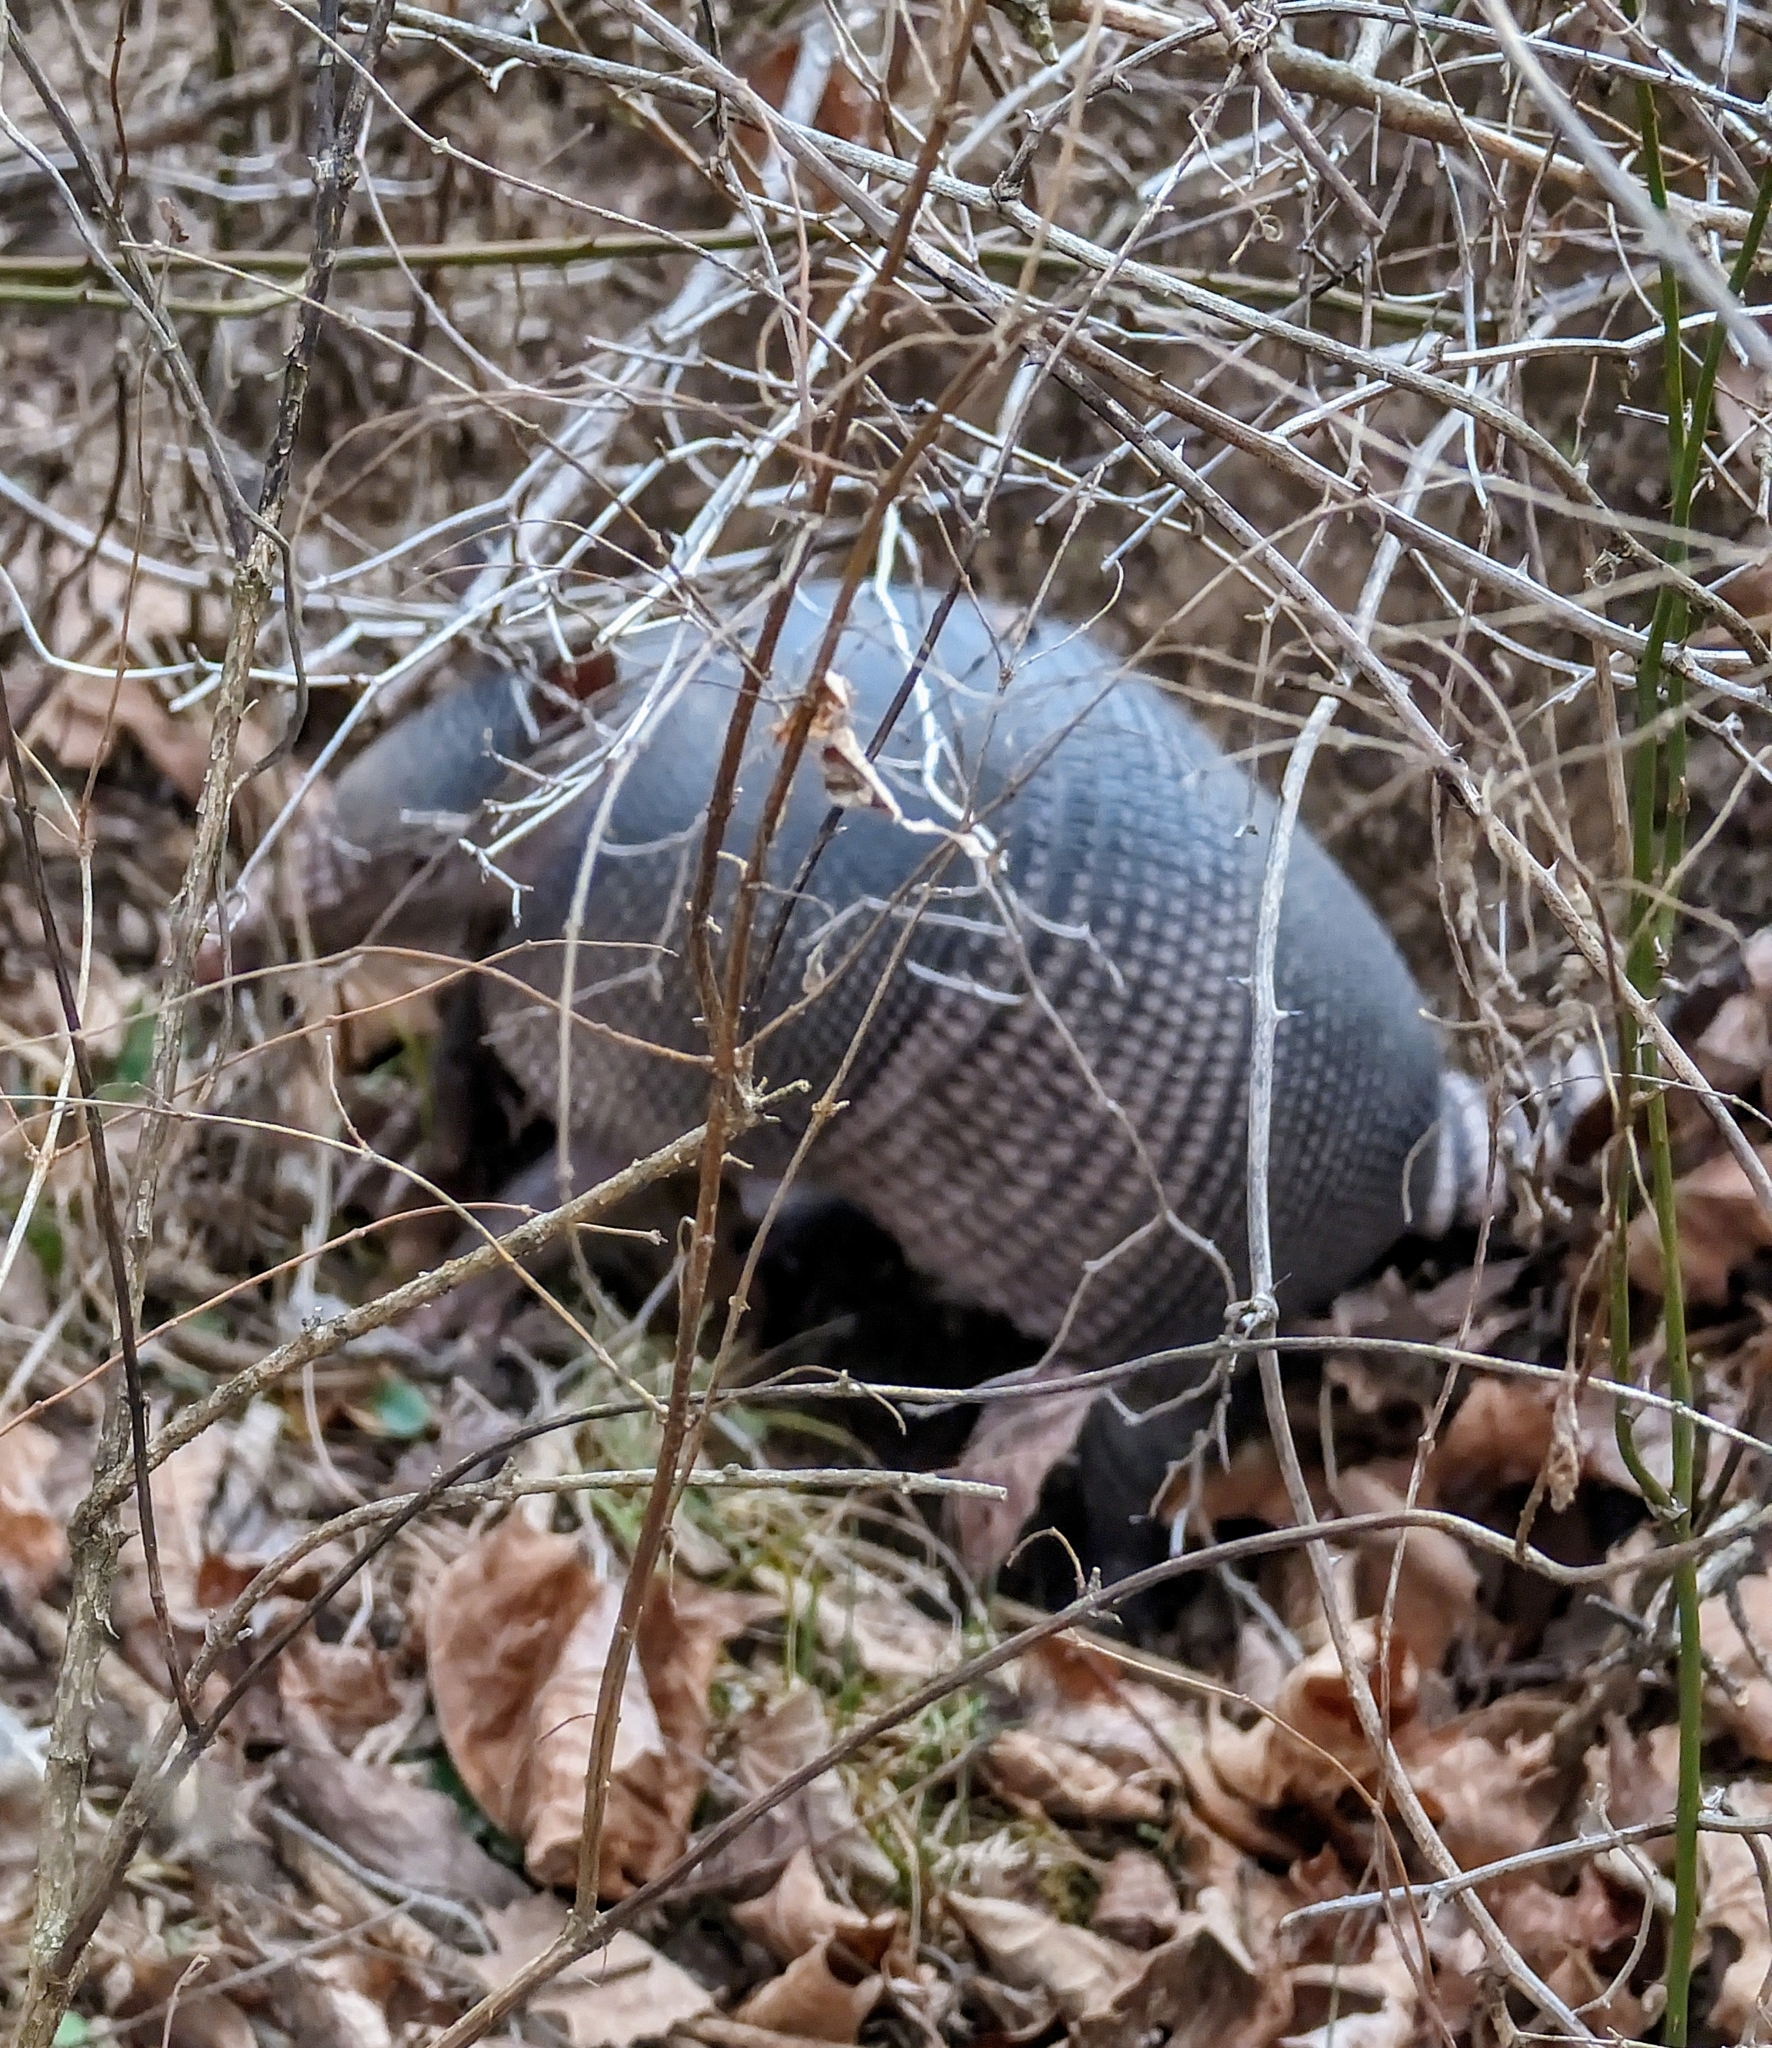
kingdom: Animalia
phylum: Chordata
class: Mammalia
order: Cingulata
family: Dasypodidae
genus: Dasypus
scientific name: Dasypus novemcinctus
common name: Nine-banded armadillo
